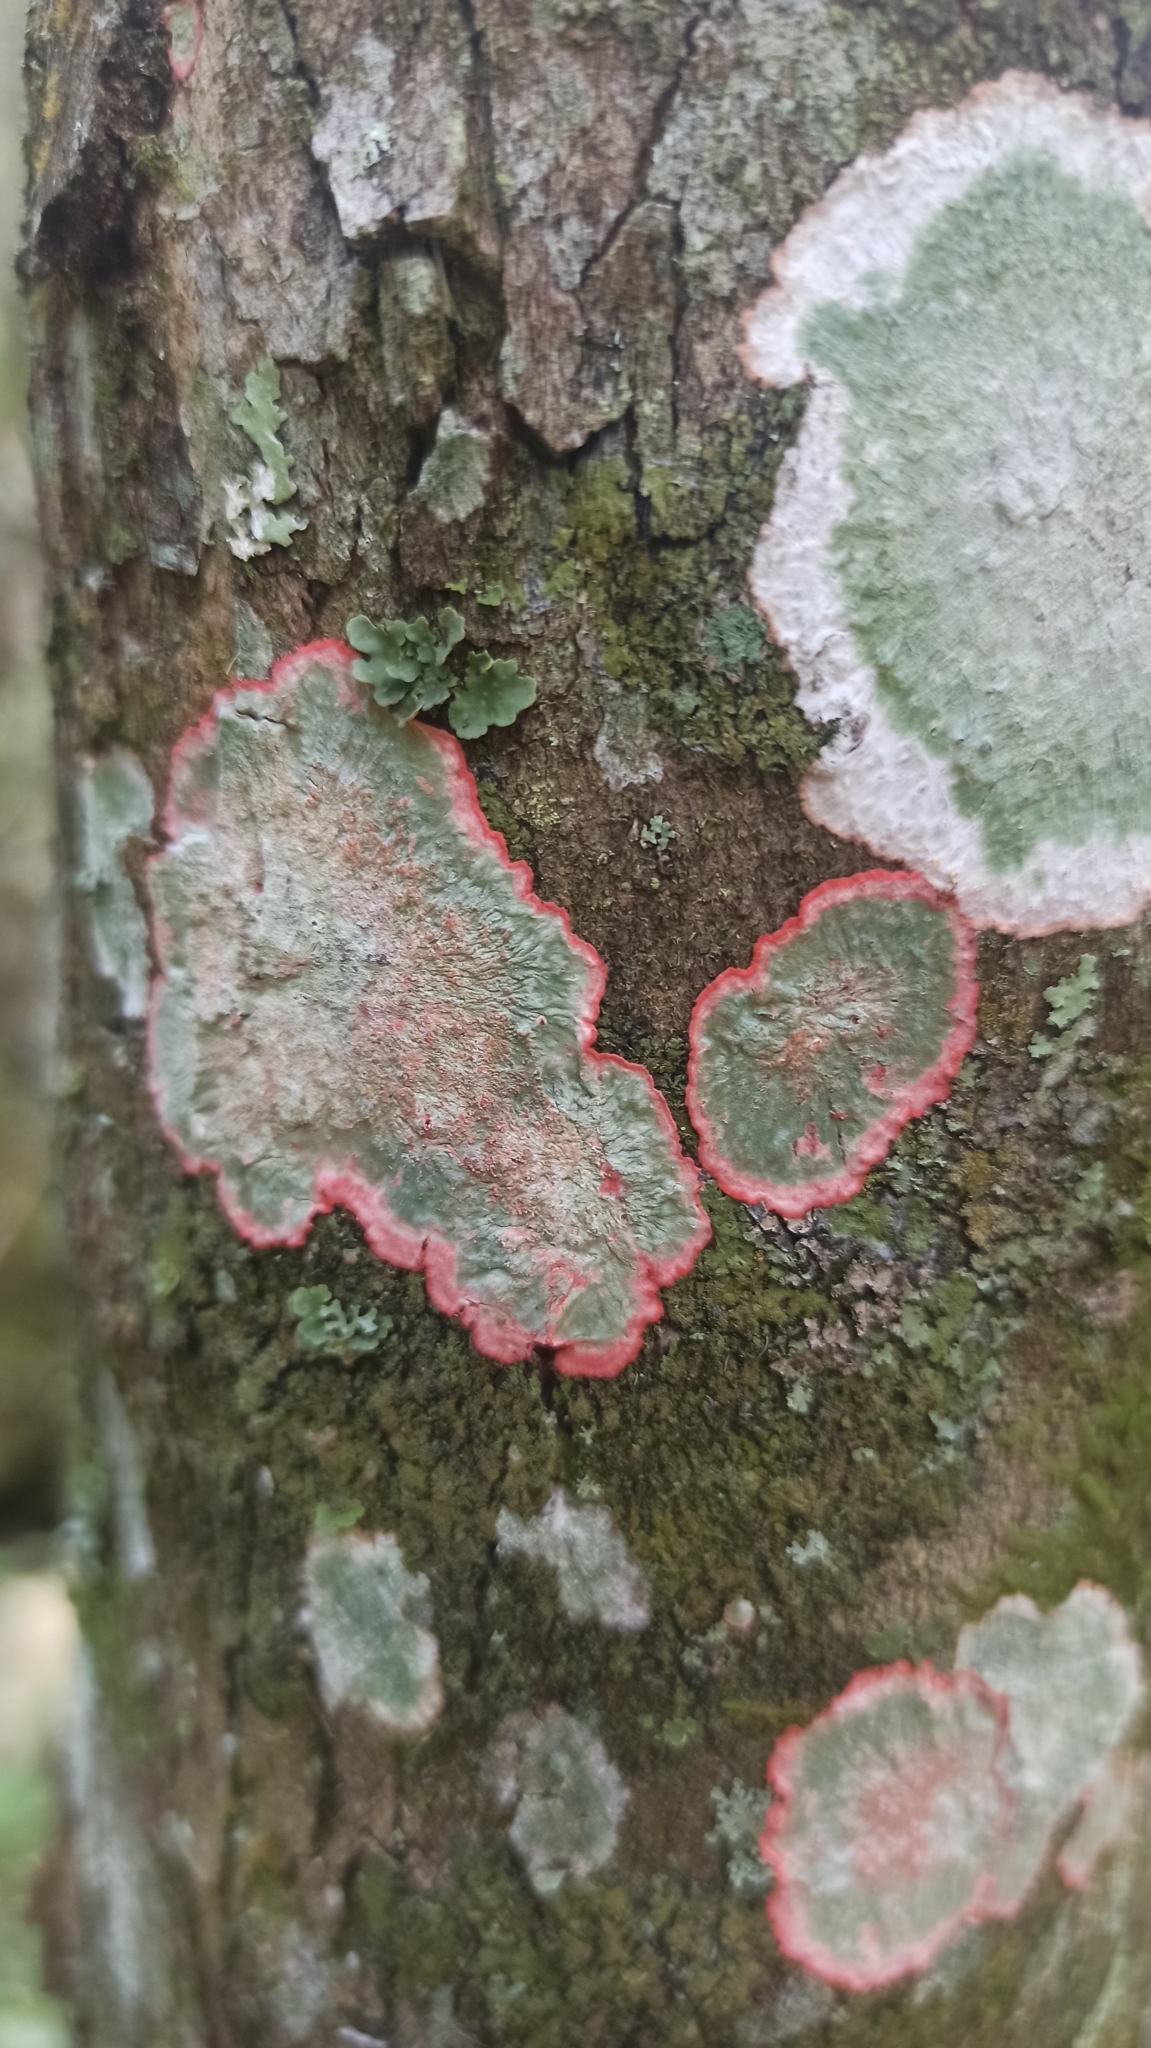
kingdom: Fungi
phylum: Ascomycota
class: Arthoniomycetes
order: Arthoniales
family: Arthoniaceae
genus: Herpothallon
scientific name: Herpothallon rubrocinctum
